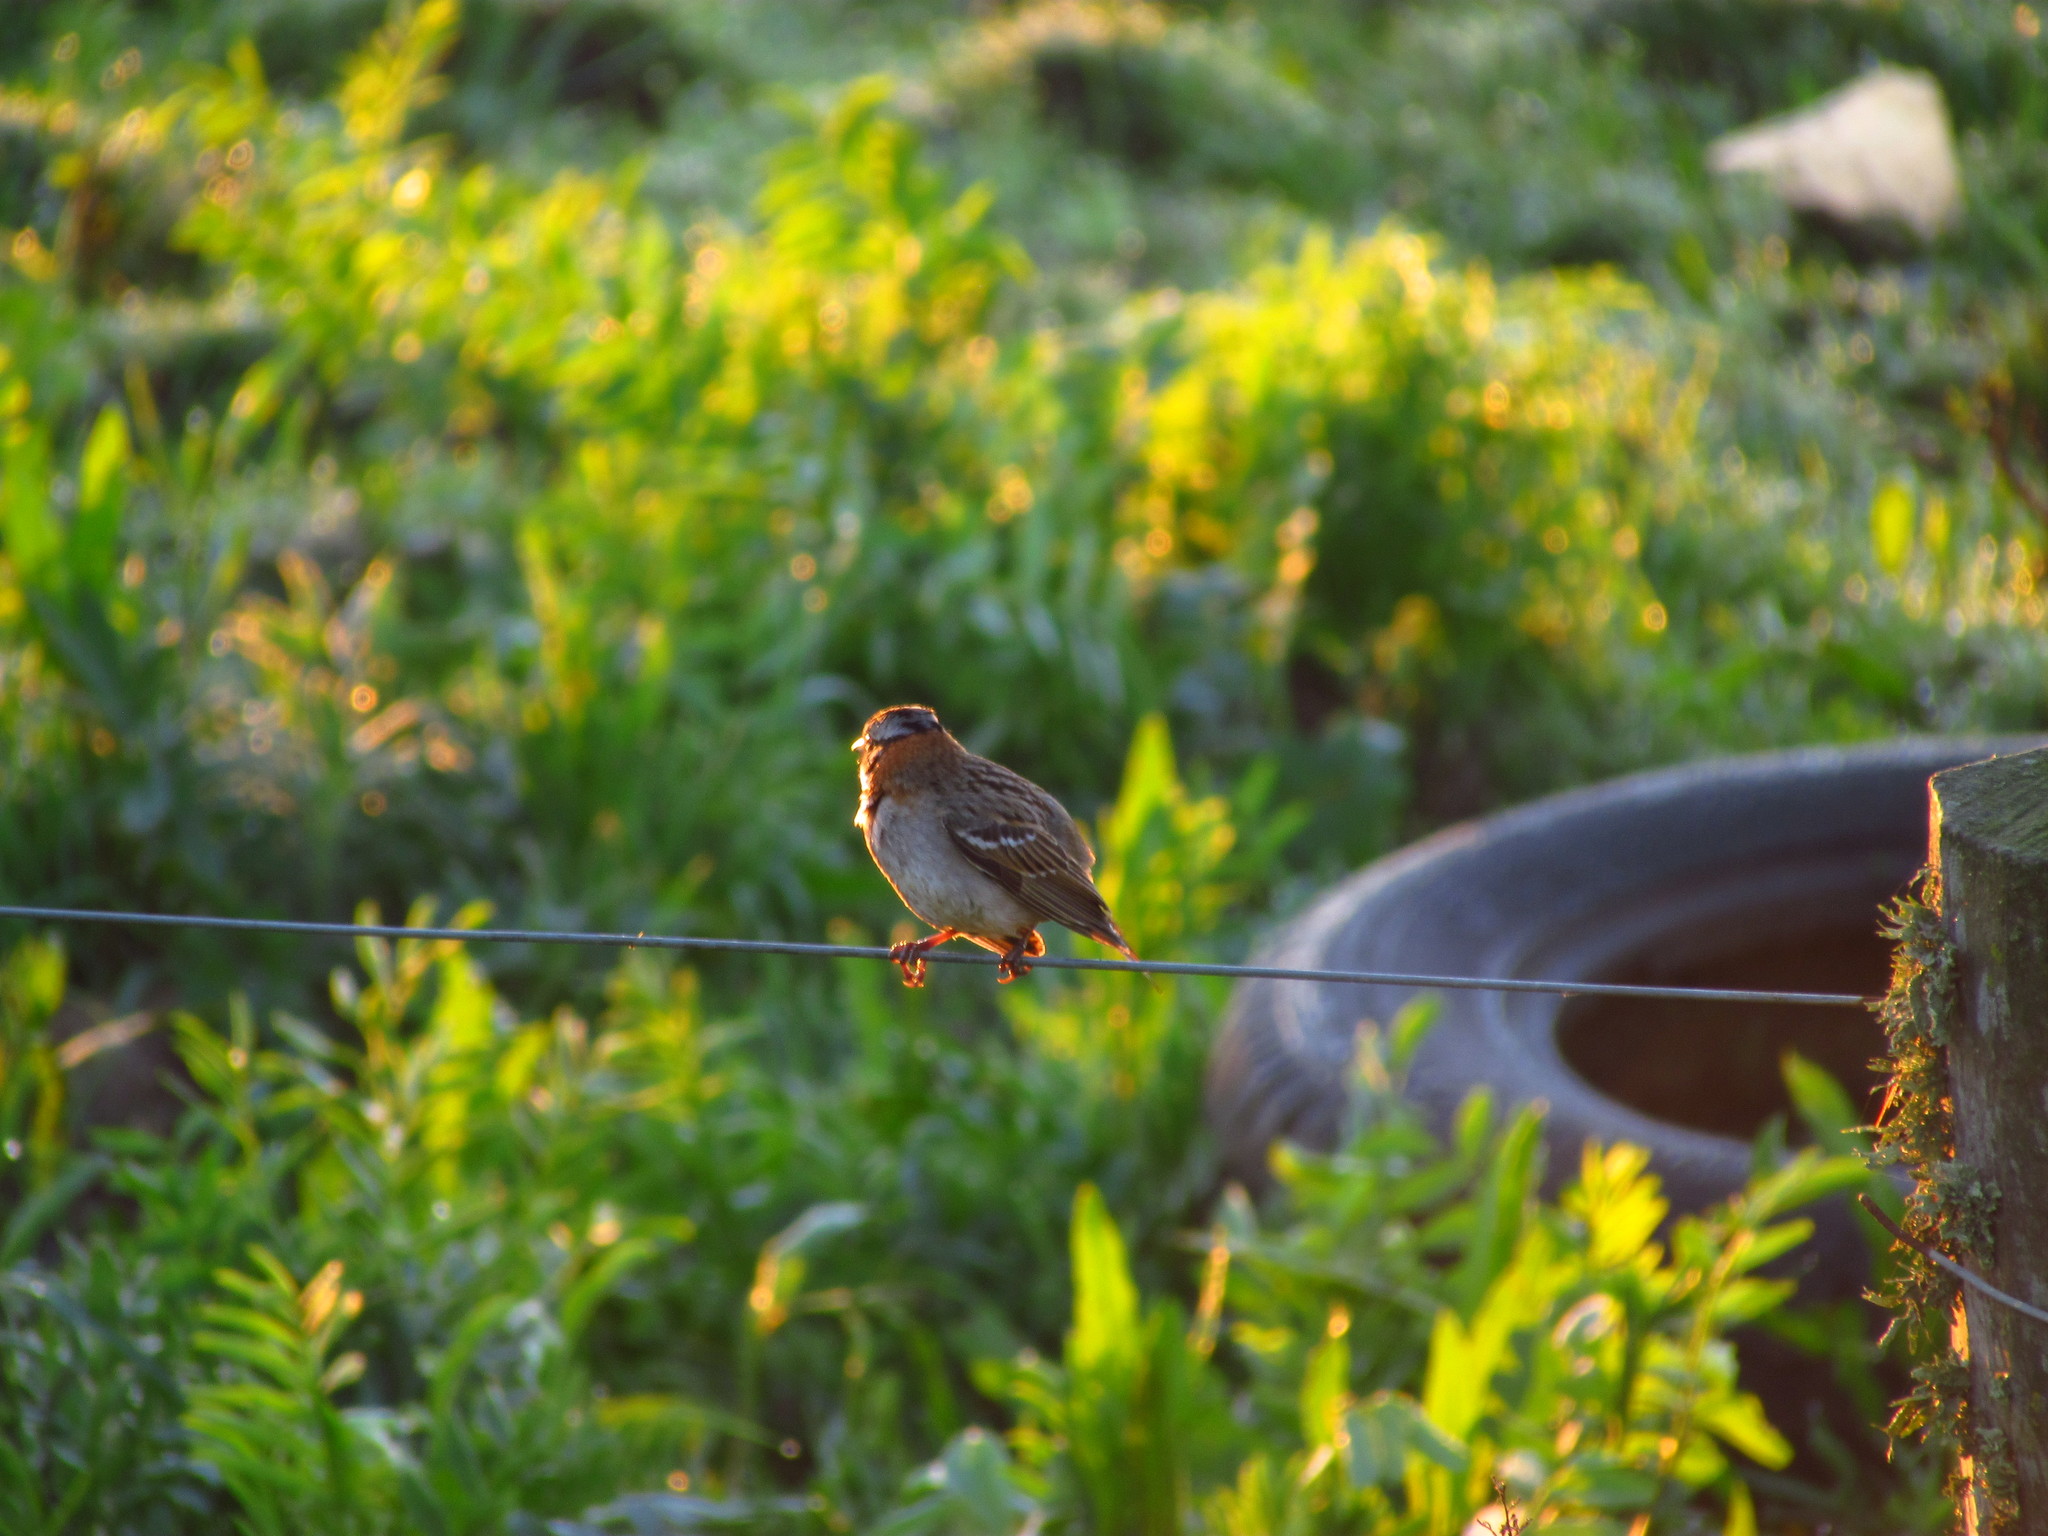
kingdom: Animalia
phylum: Chordata
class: Aves
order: Passeriformes
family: Passerellidae
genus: Zonotrichia
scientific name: Zonotrichia capensis
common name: Rufous-collared sparrow
